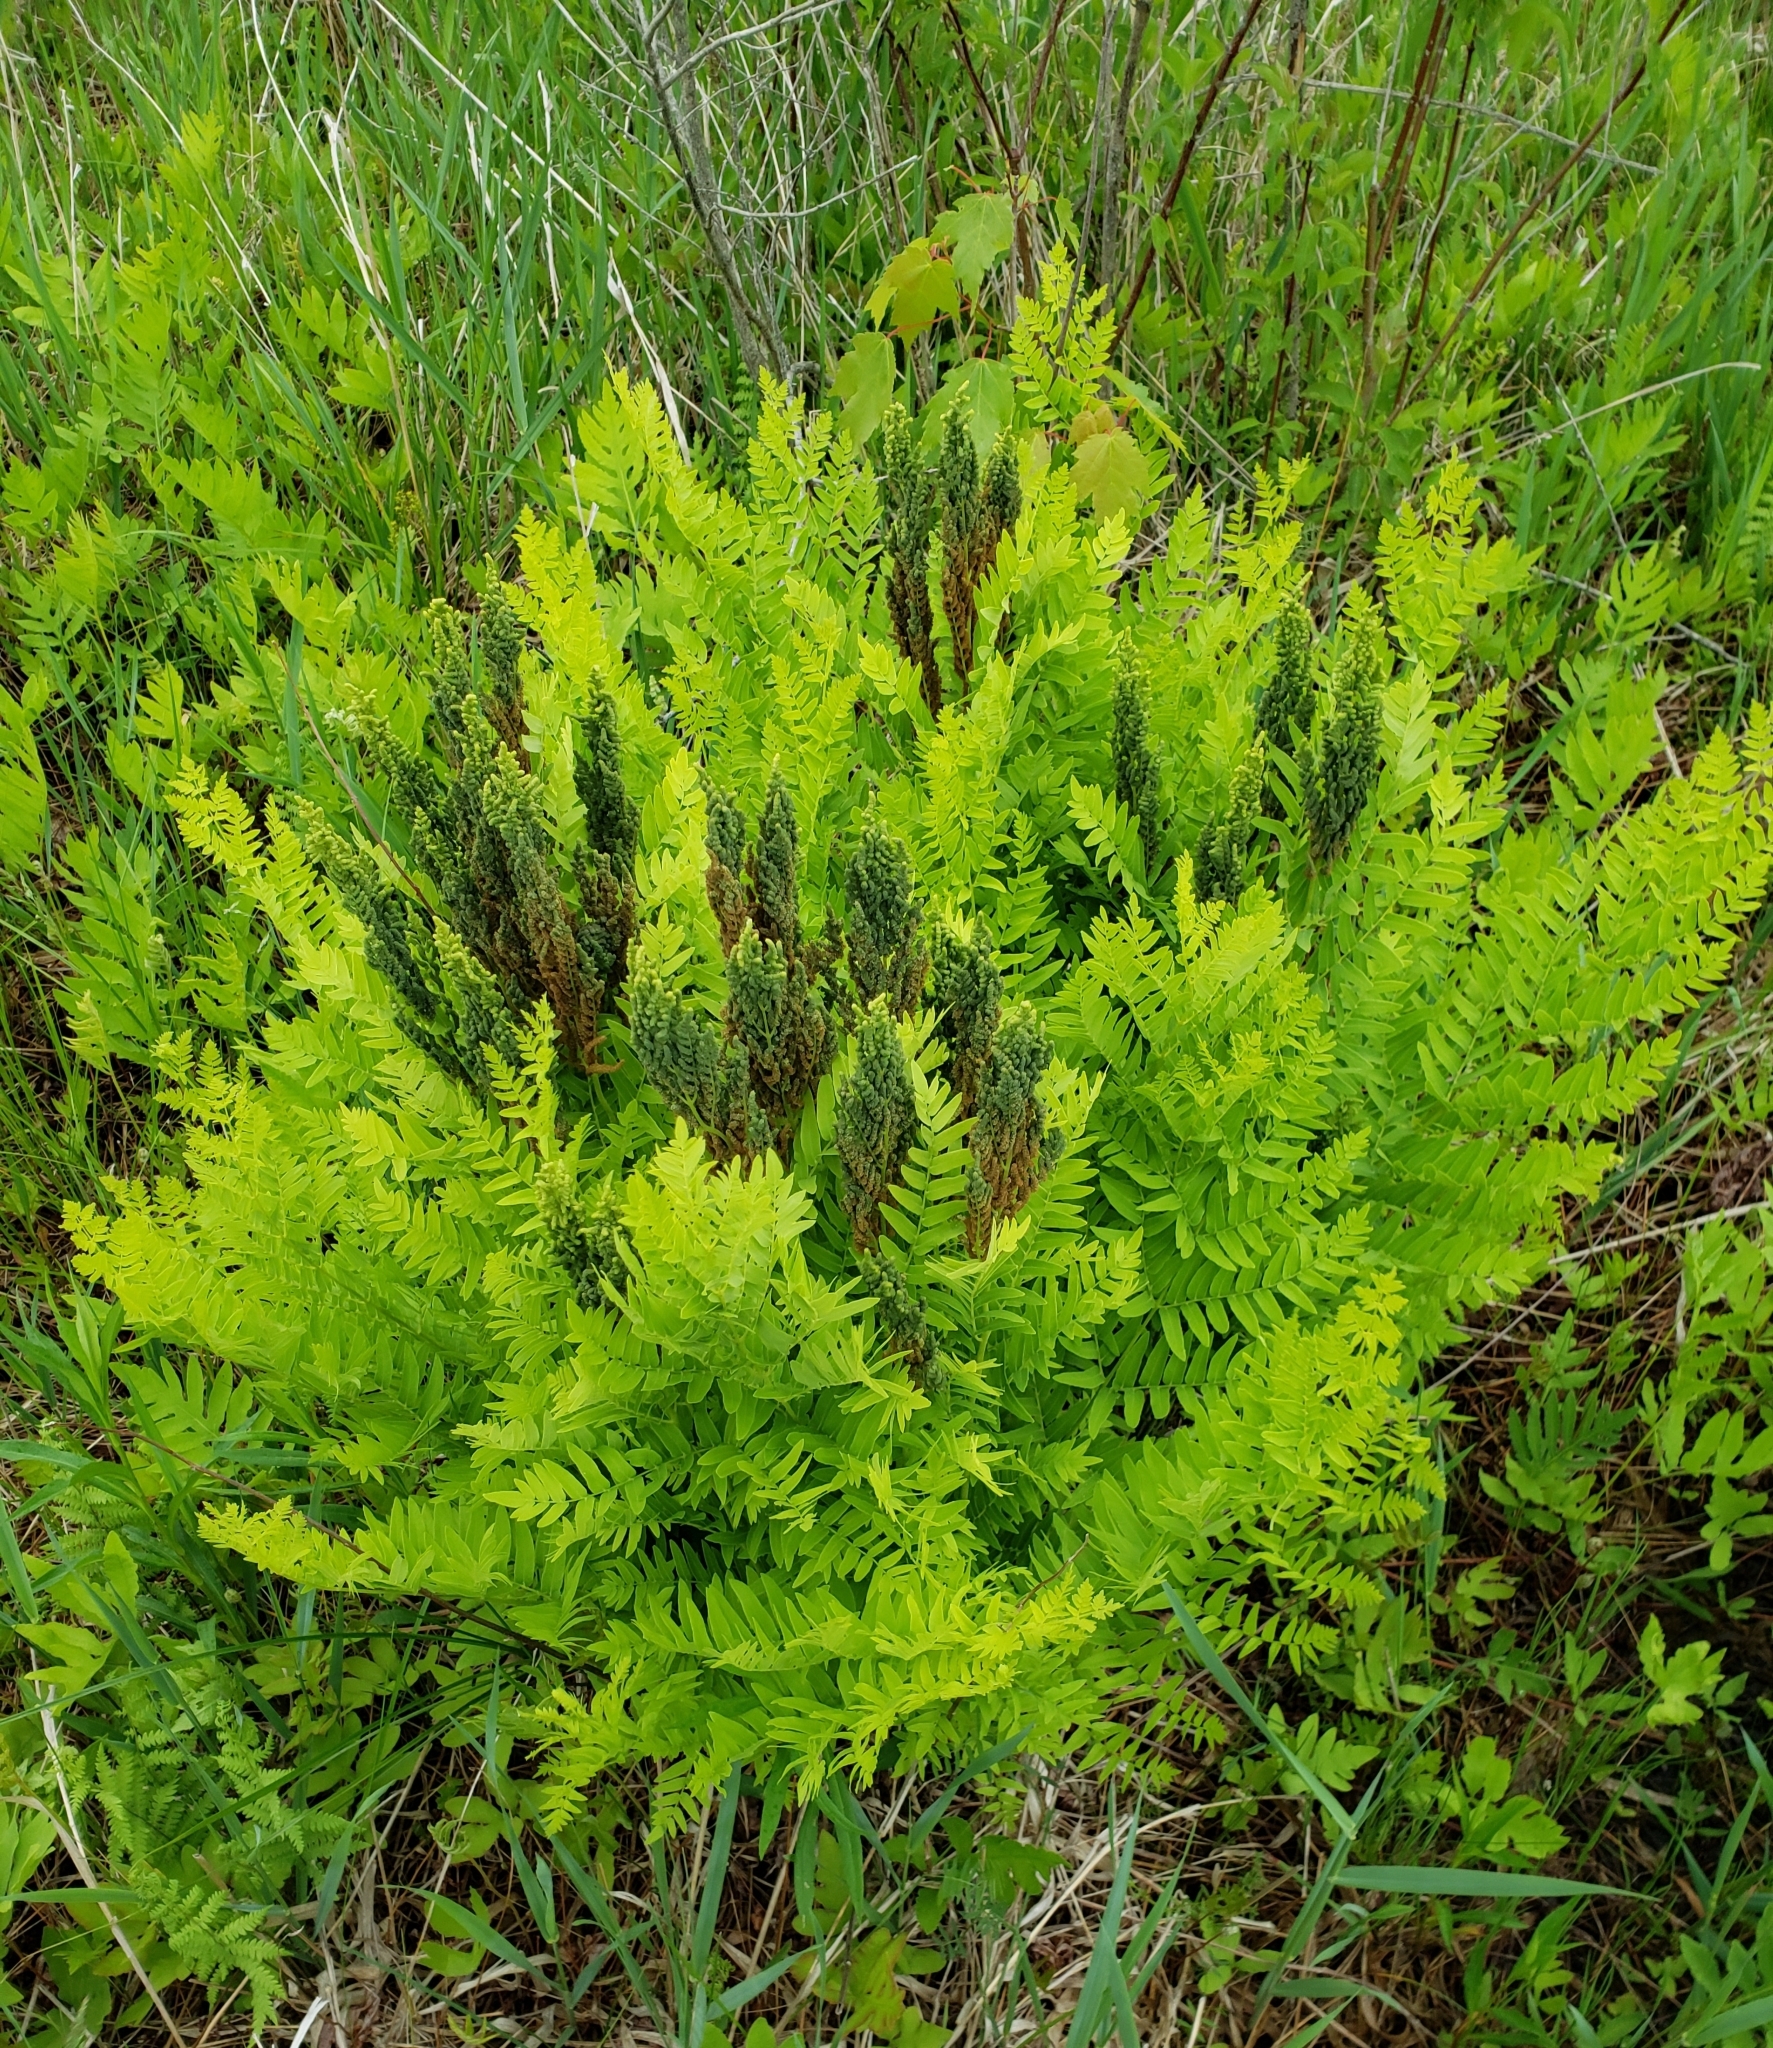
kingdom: Plantae
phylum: Tracheophyta
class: Polypodiopsida
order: Osmundales
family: Osmundaceae
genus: Osmunda
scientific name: Osmunda spectabilis
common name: American royal fern
